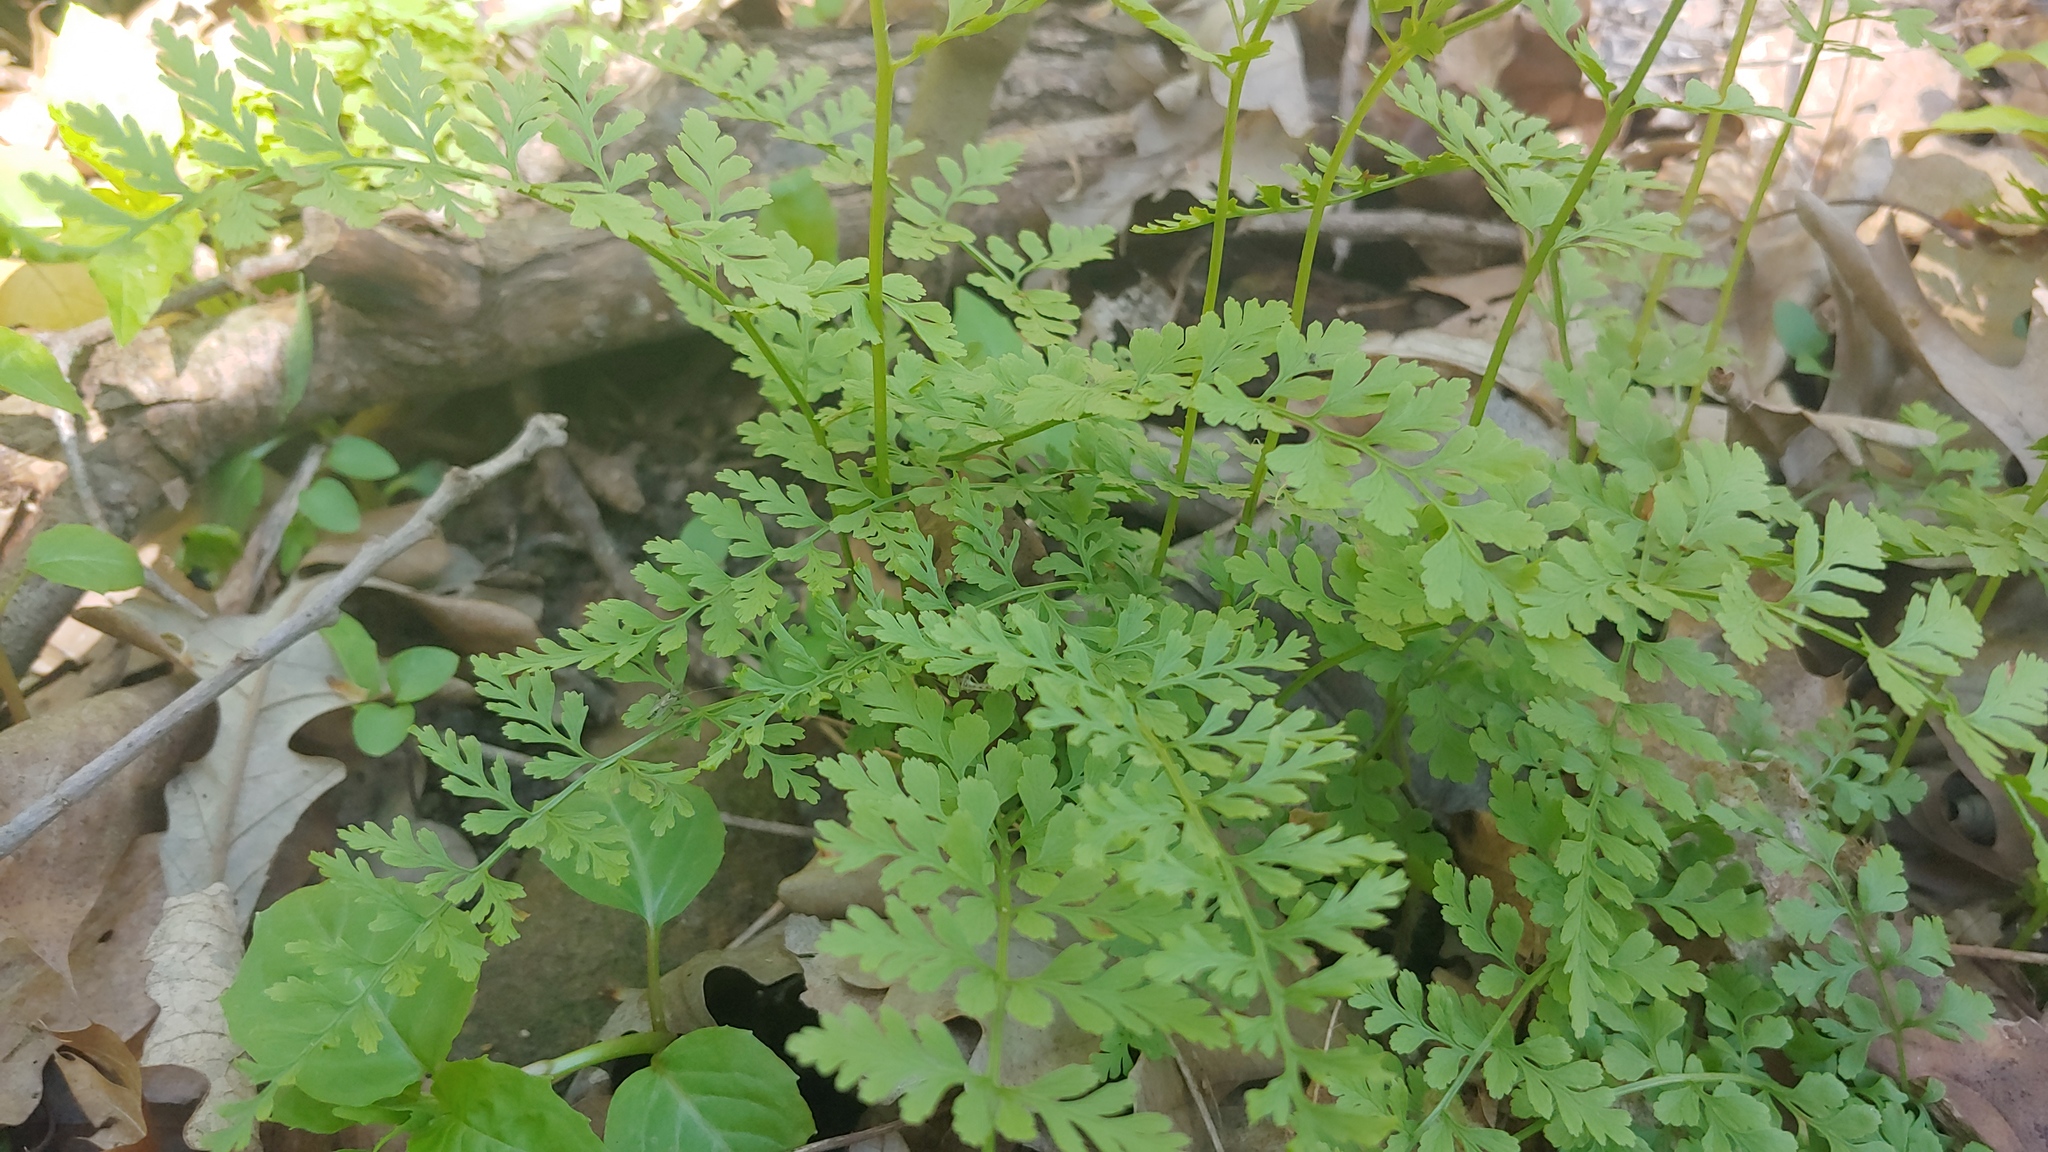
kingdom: Plantae
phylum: Tracheophyta
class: Polypodiopsida
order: Polypodiales
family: Cystopteridaceae
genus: Cystopteris
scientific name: Cystopteris protrusa
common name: Lowland brittle fern
